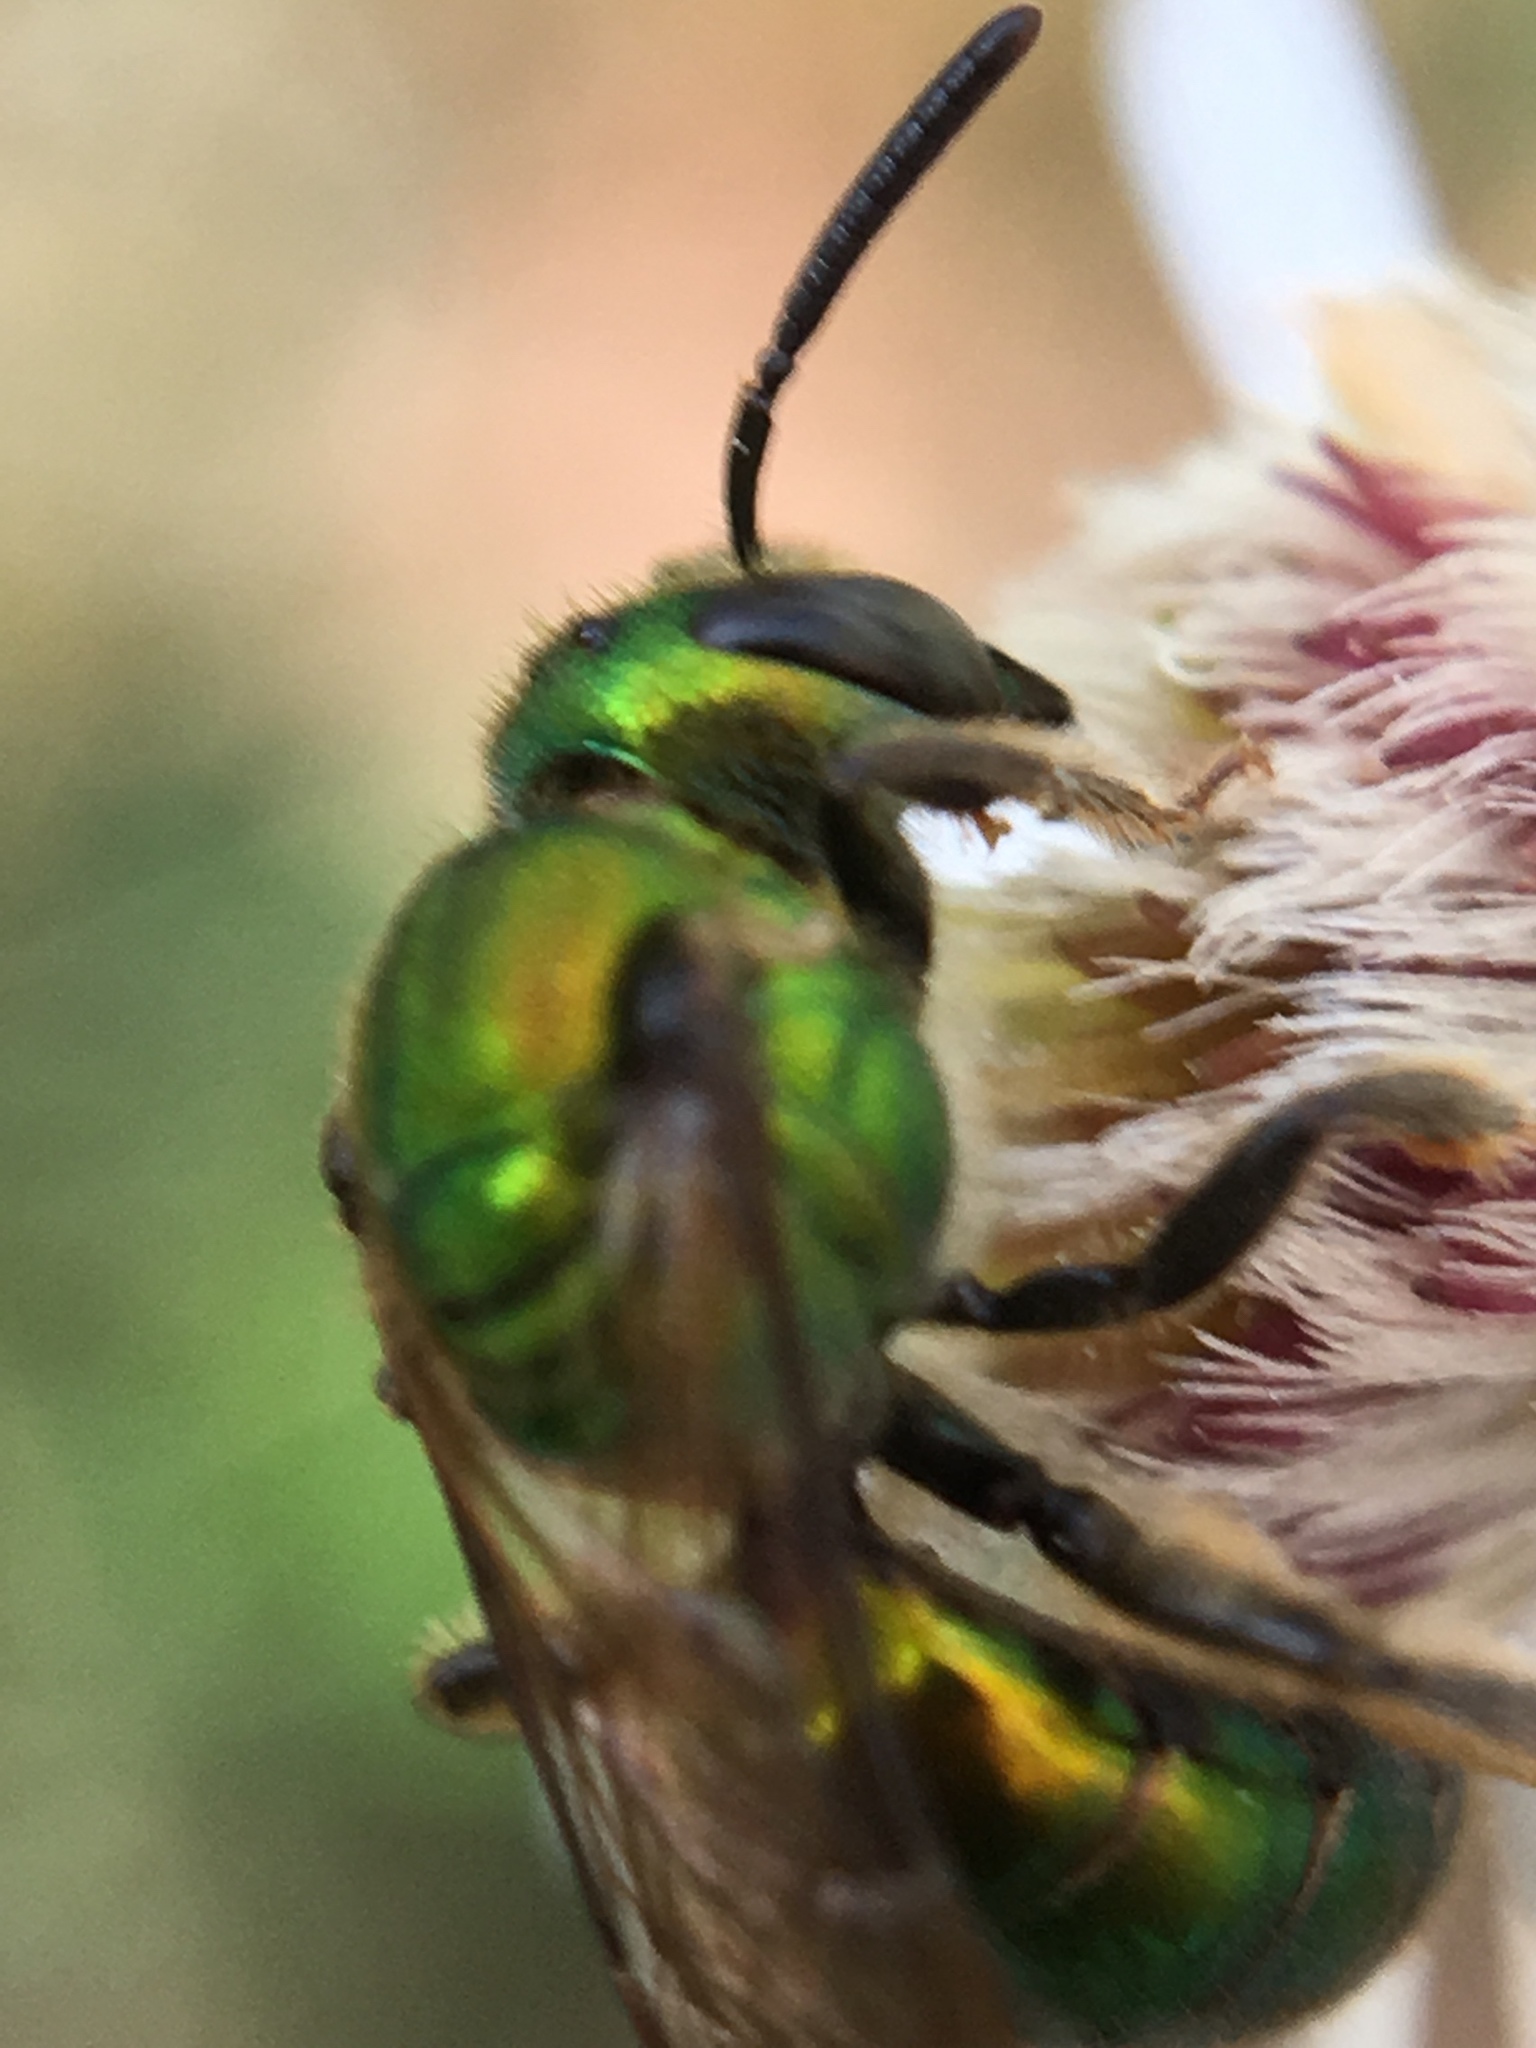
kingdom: Animalia
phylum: Arthropoda
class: Insecta
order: Hymenoptera
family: Halictidae
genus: Augochlora
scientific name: Augochlora pura
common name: Pure green sweat bee
